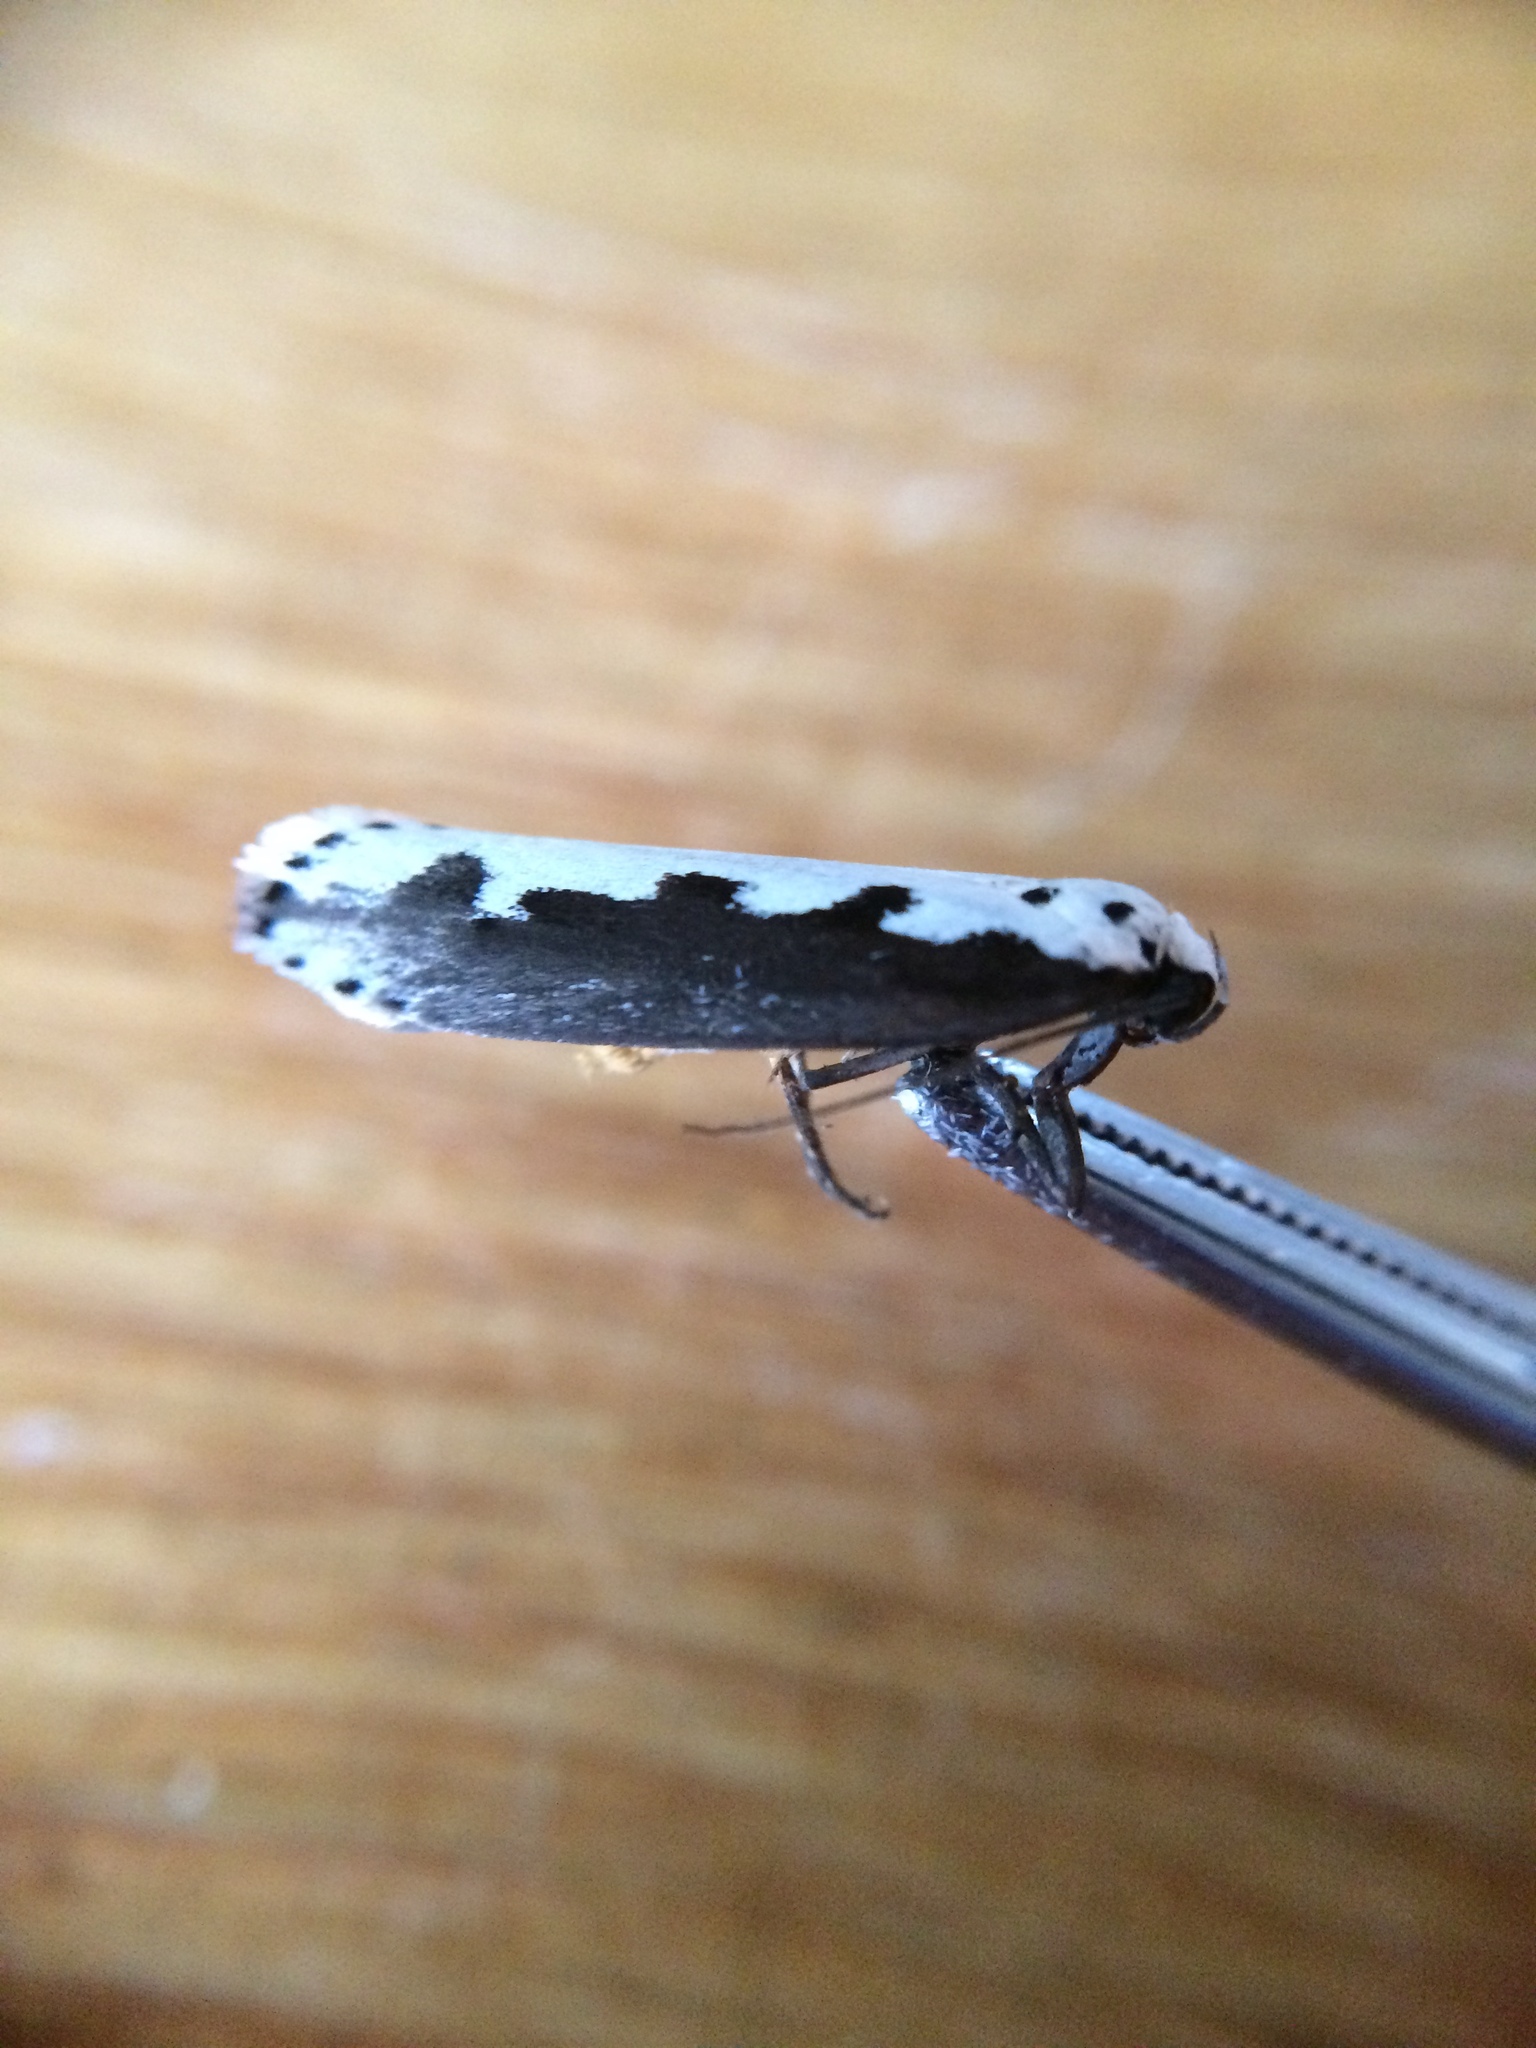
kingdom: Animalia
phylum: Arthropoda
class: Insecta
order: Lepidoptera
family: Ethmiidae
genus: Ethmia
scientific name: Ethmia bipunctella
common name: Bordered ermel
